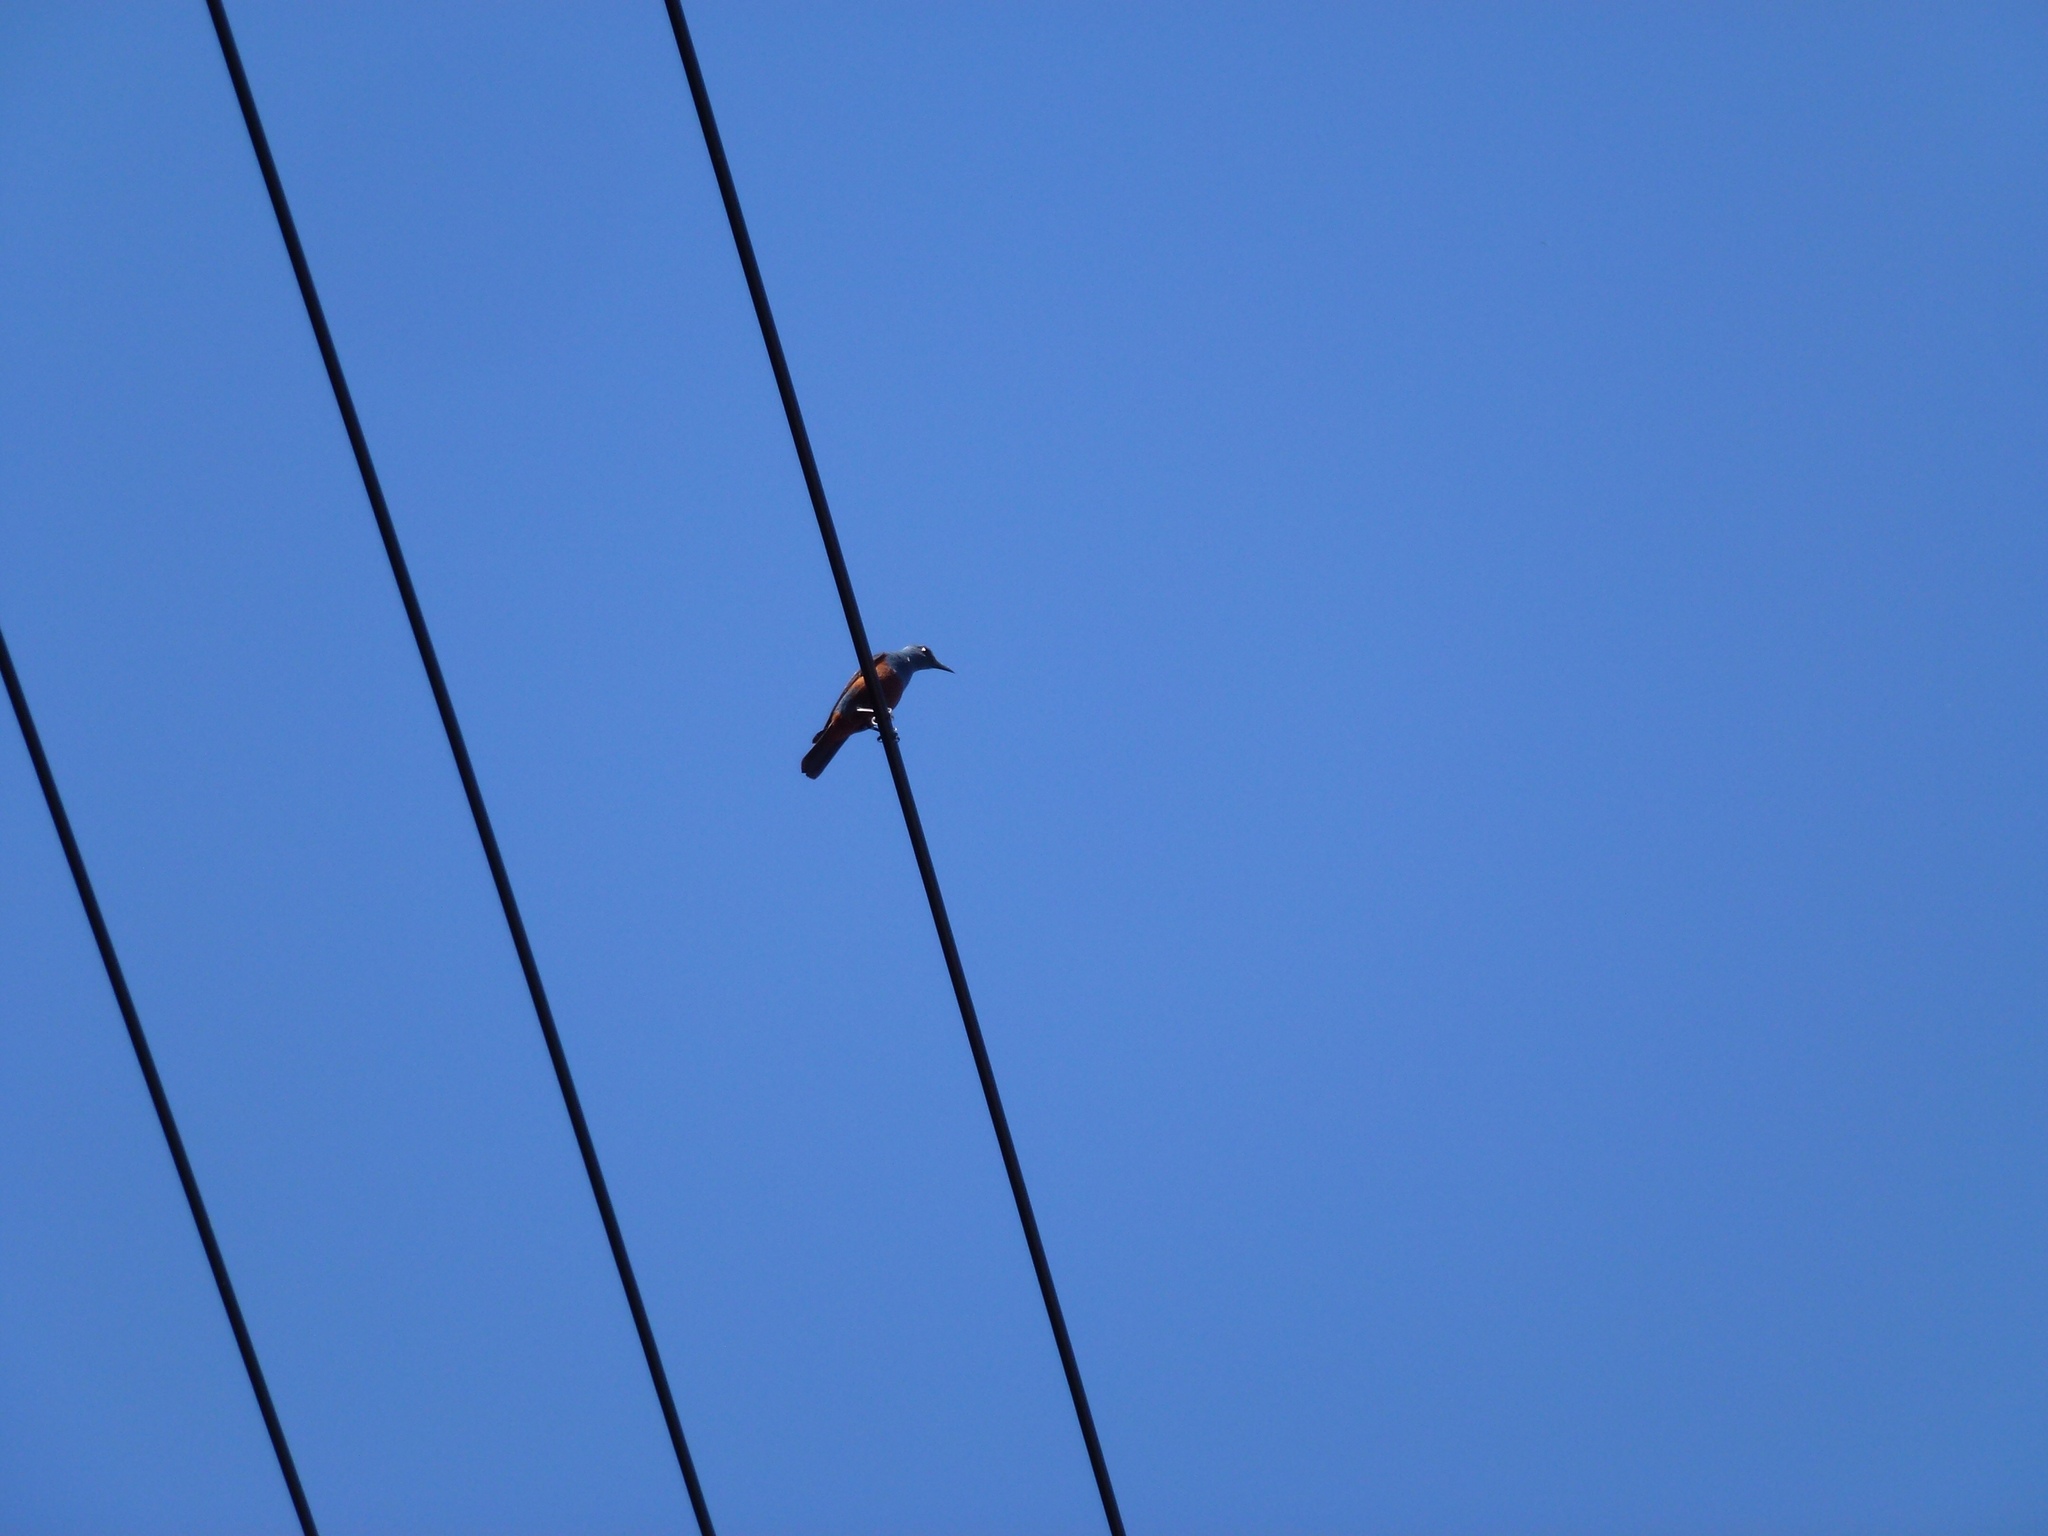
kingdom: Animalia
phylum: Chordata
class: Aves
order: Passeriformes
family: Muscicapidae
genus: Monticola
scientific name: Monticola solitarius
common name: Blue rock thrush
